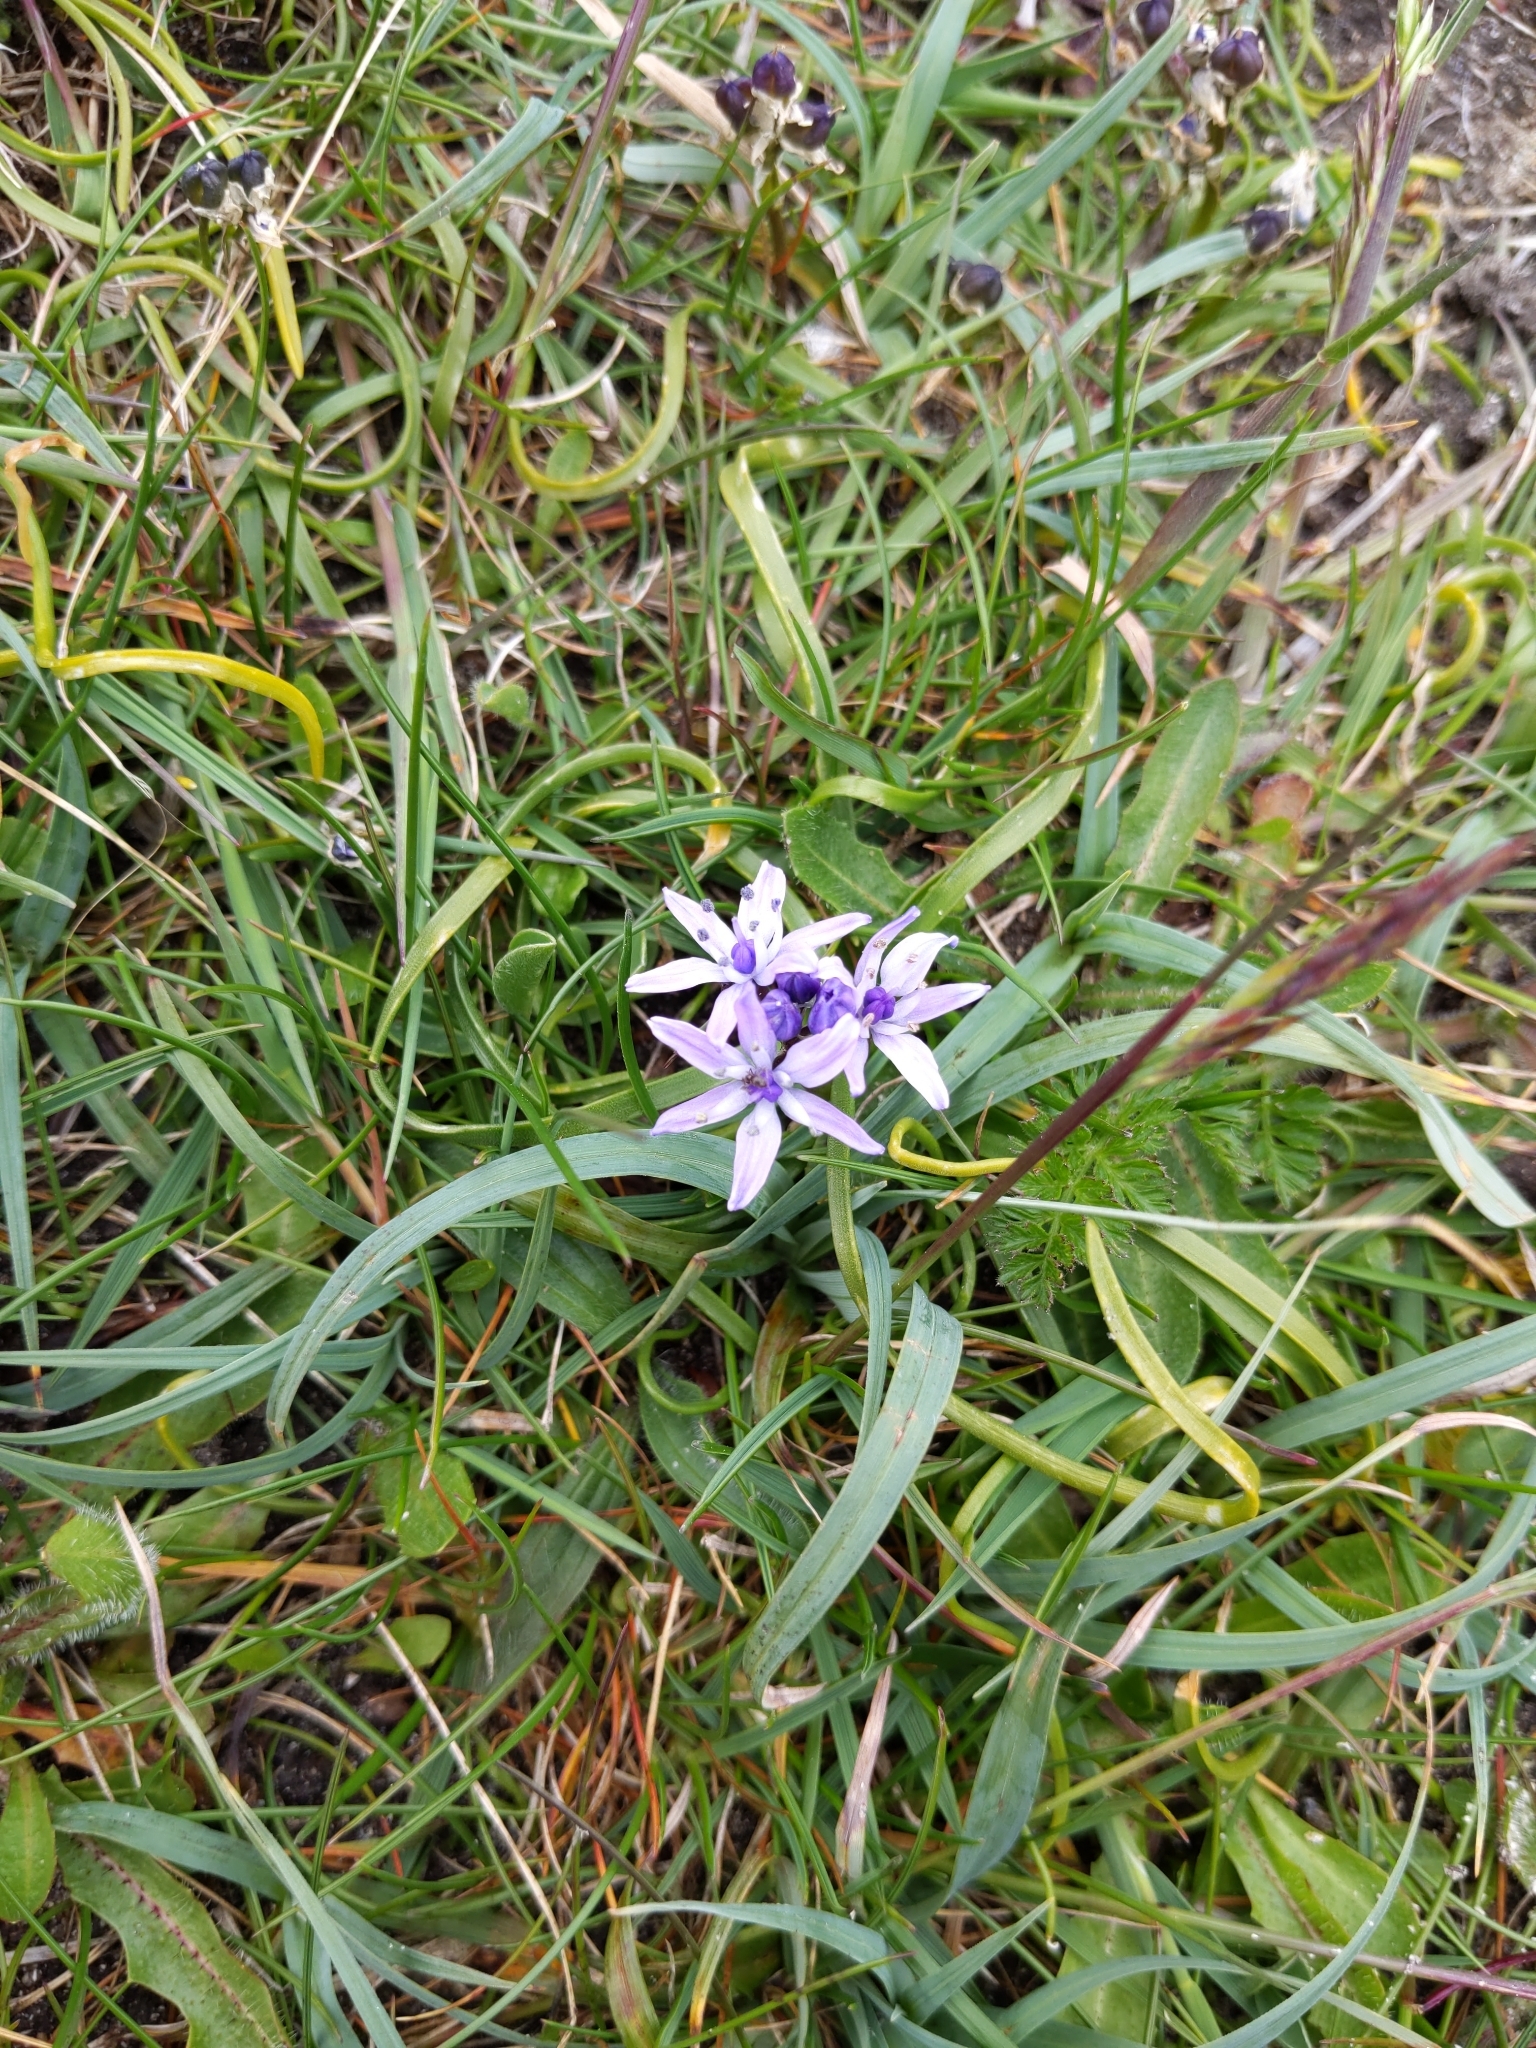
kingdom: Plantae
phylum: Tracheophyta
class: Liliopsida
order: Asparagales
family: Asparagaceae
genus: Scilla
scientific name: Scilla verna
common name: Spring squill
